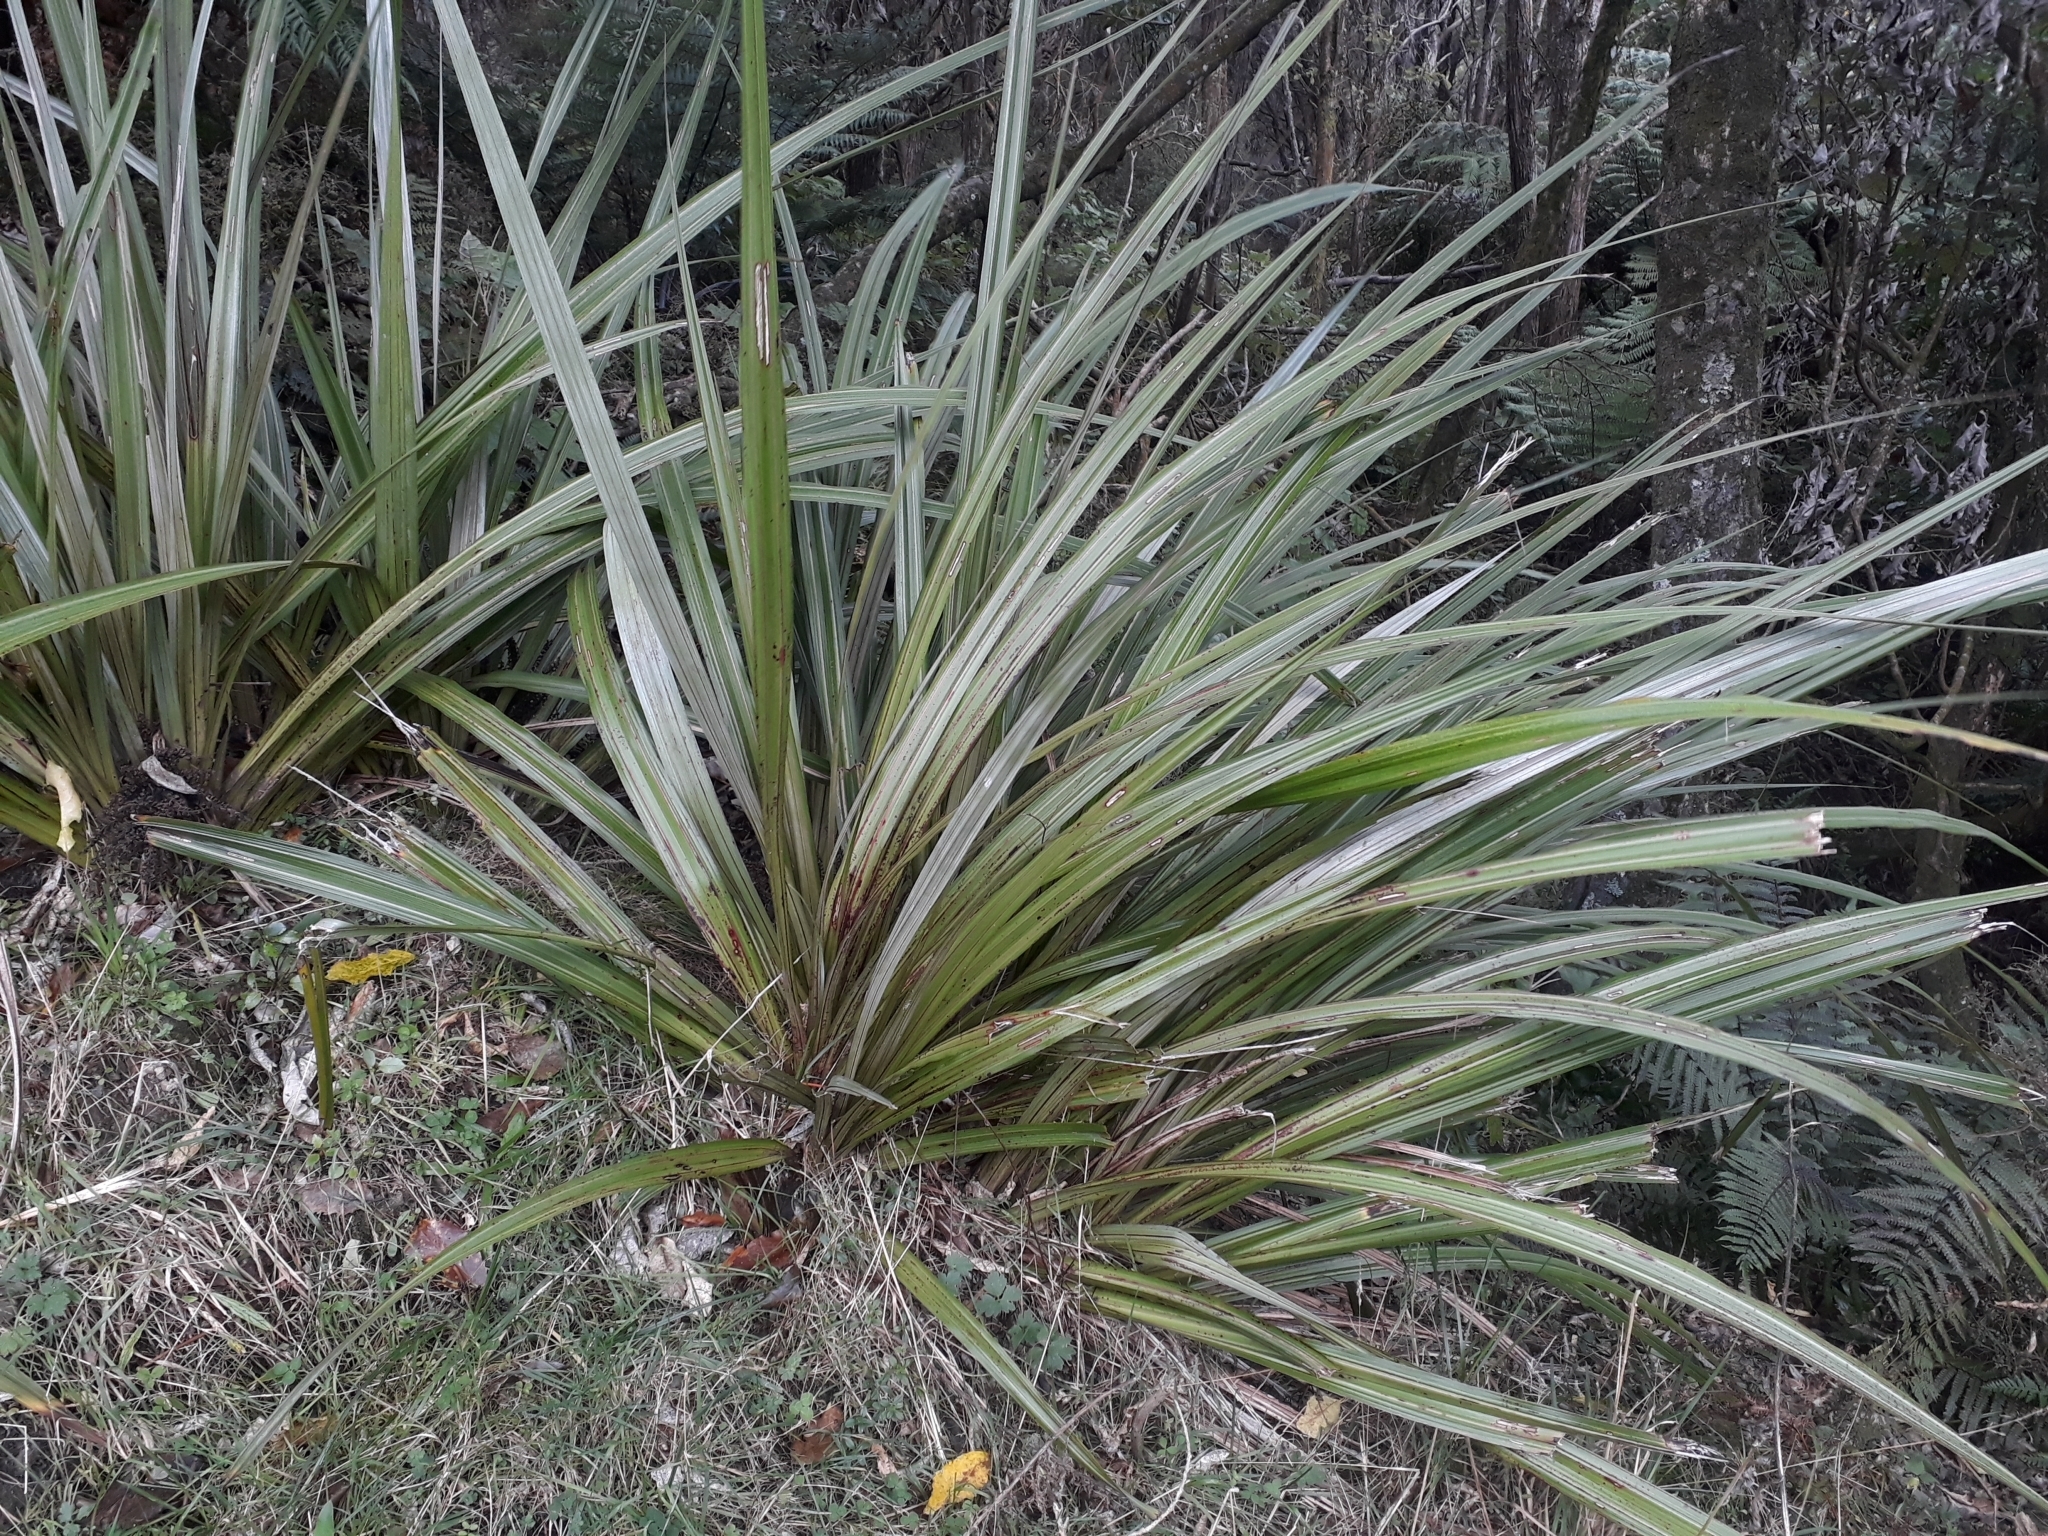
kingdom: Plantae
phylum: Tracheophyta
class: Liliopsida
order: Asparagales
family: Asteliaceae
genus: Astelia
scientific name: Astelia fragrans
